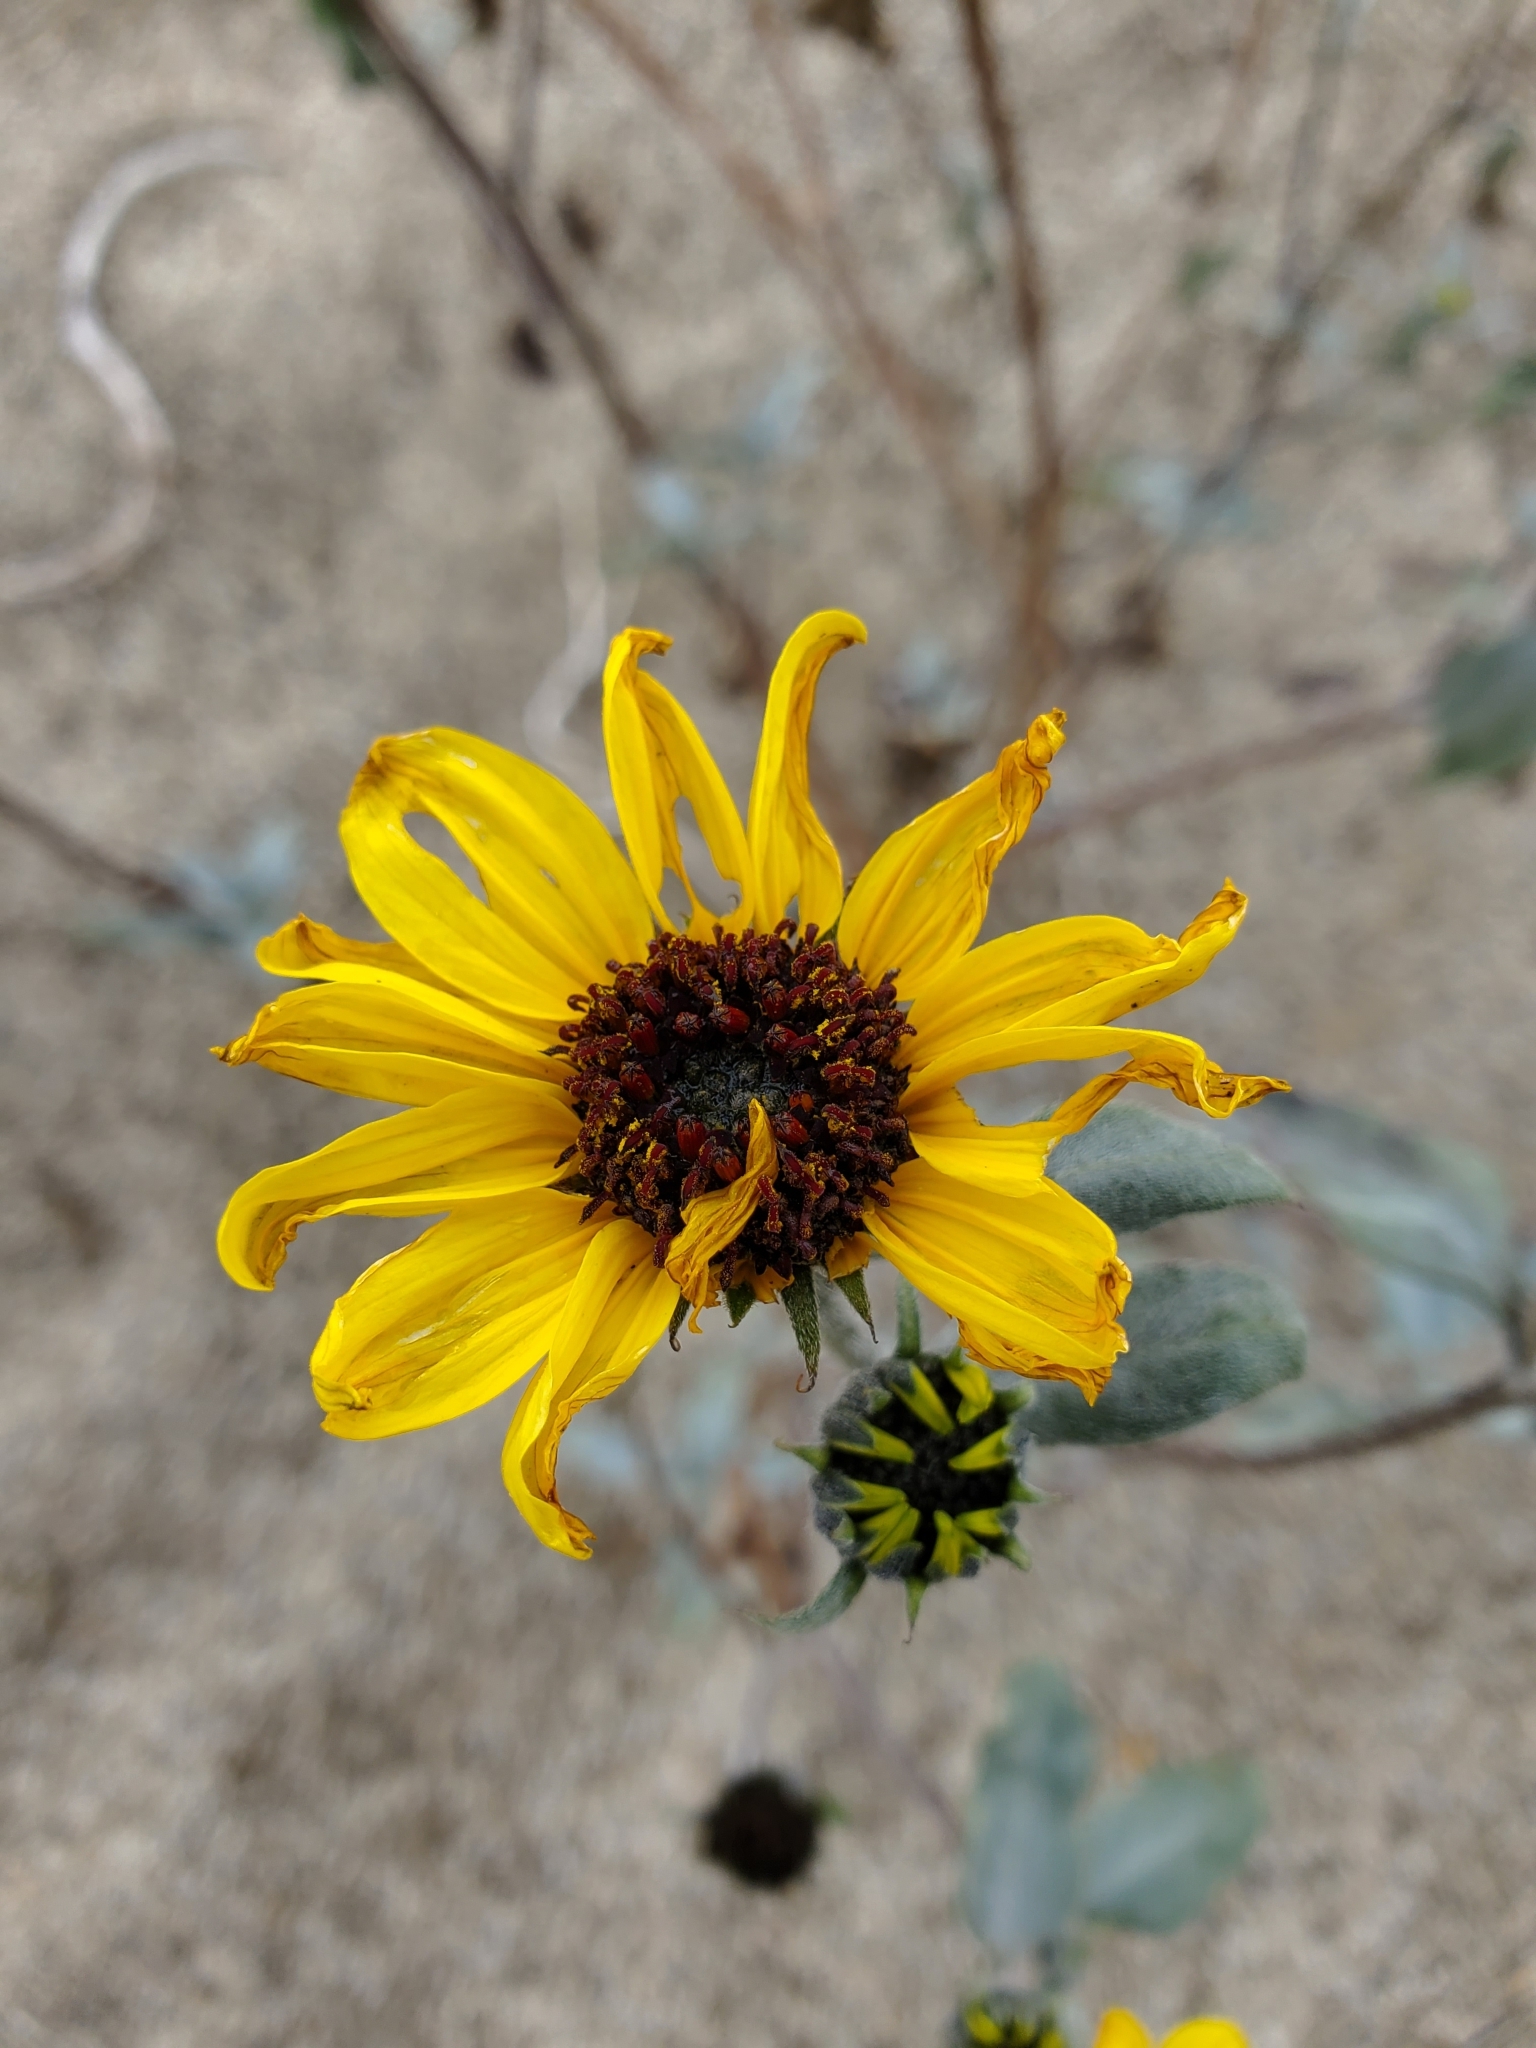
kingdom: Plantae
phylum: Tracheophyta
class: Magnoliopsida
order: Asterales
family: Asteraceae
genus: Helianthus
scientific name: Helianthus petiolaris
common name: Lesser sunflower
